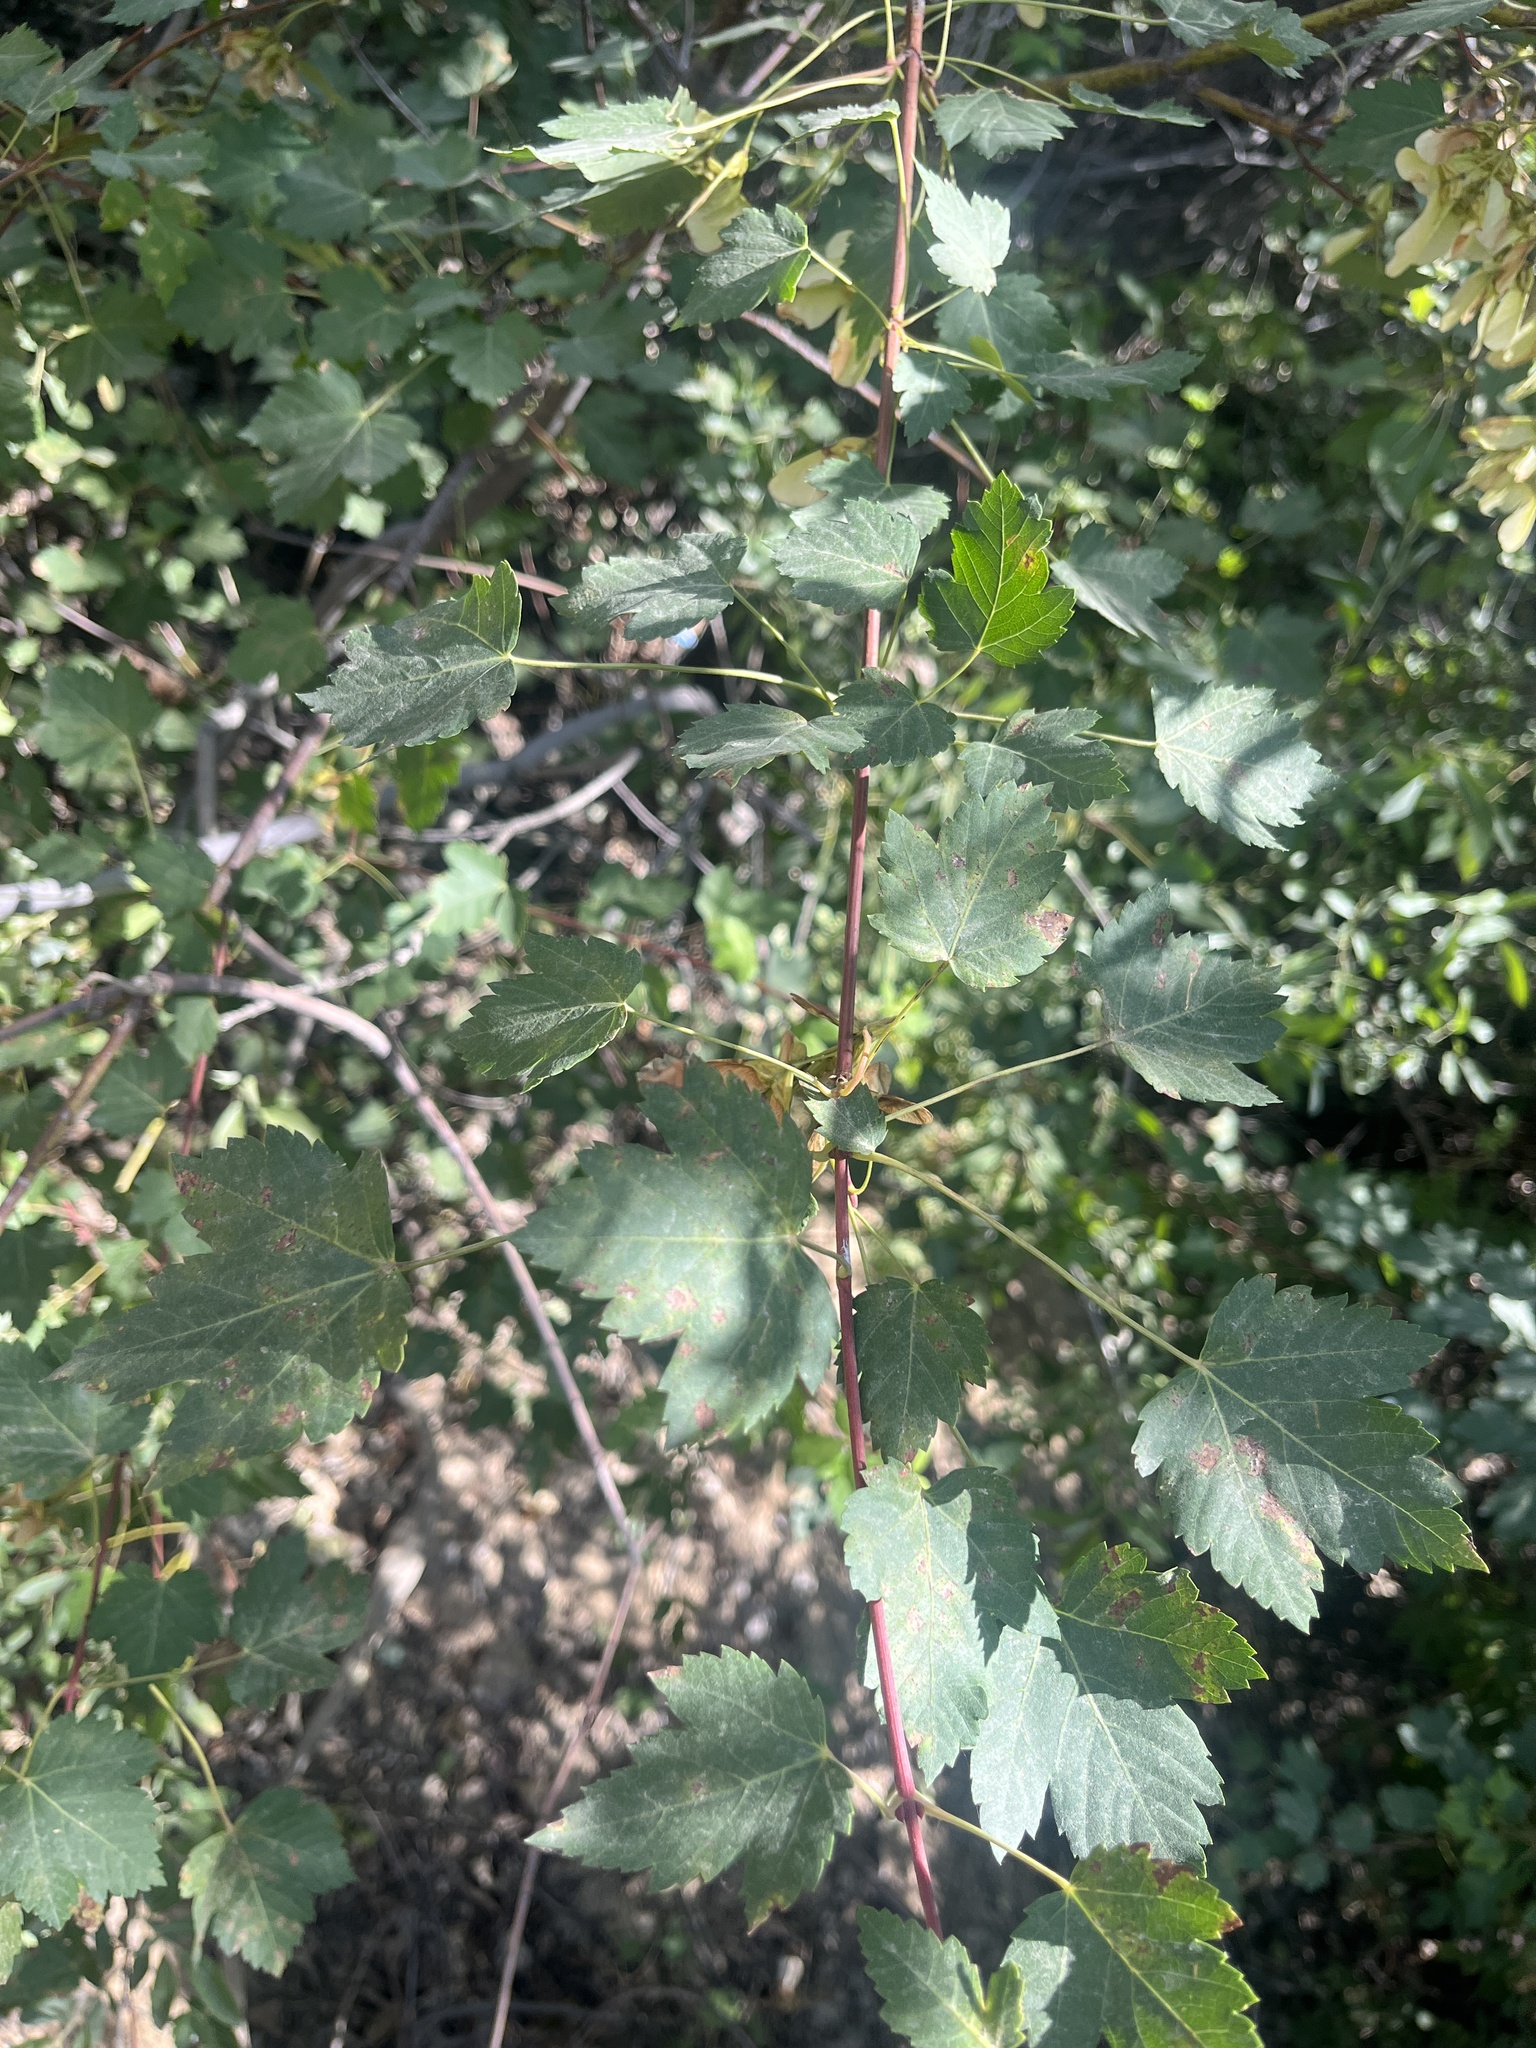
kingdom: Plantae
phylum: Tracheophyta
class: Magnoliopsida
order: Sapindales
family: Sapindaceae
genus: Acer
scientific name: Acer glabrum
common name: Rocky mountain maple
